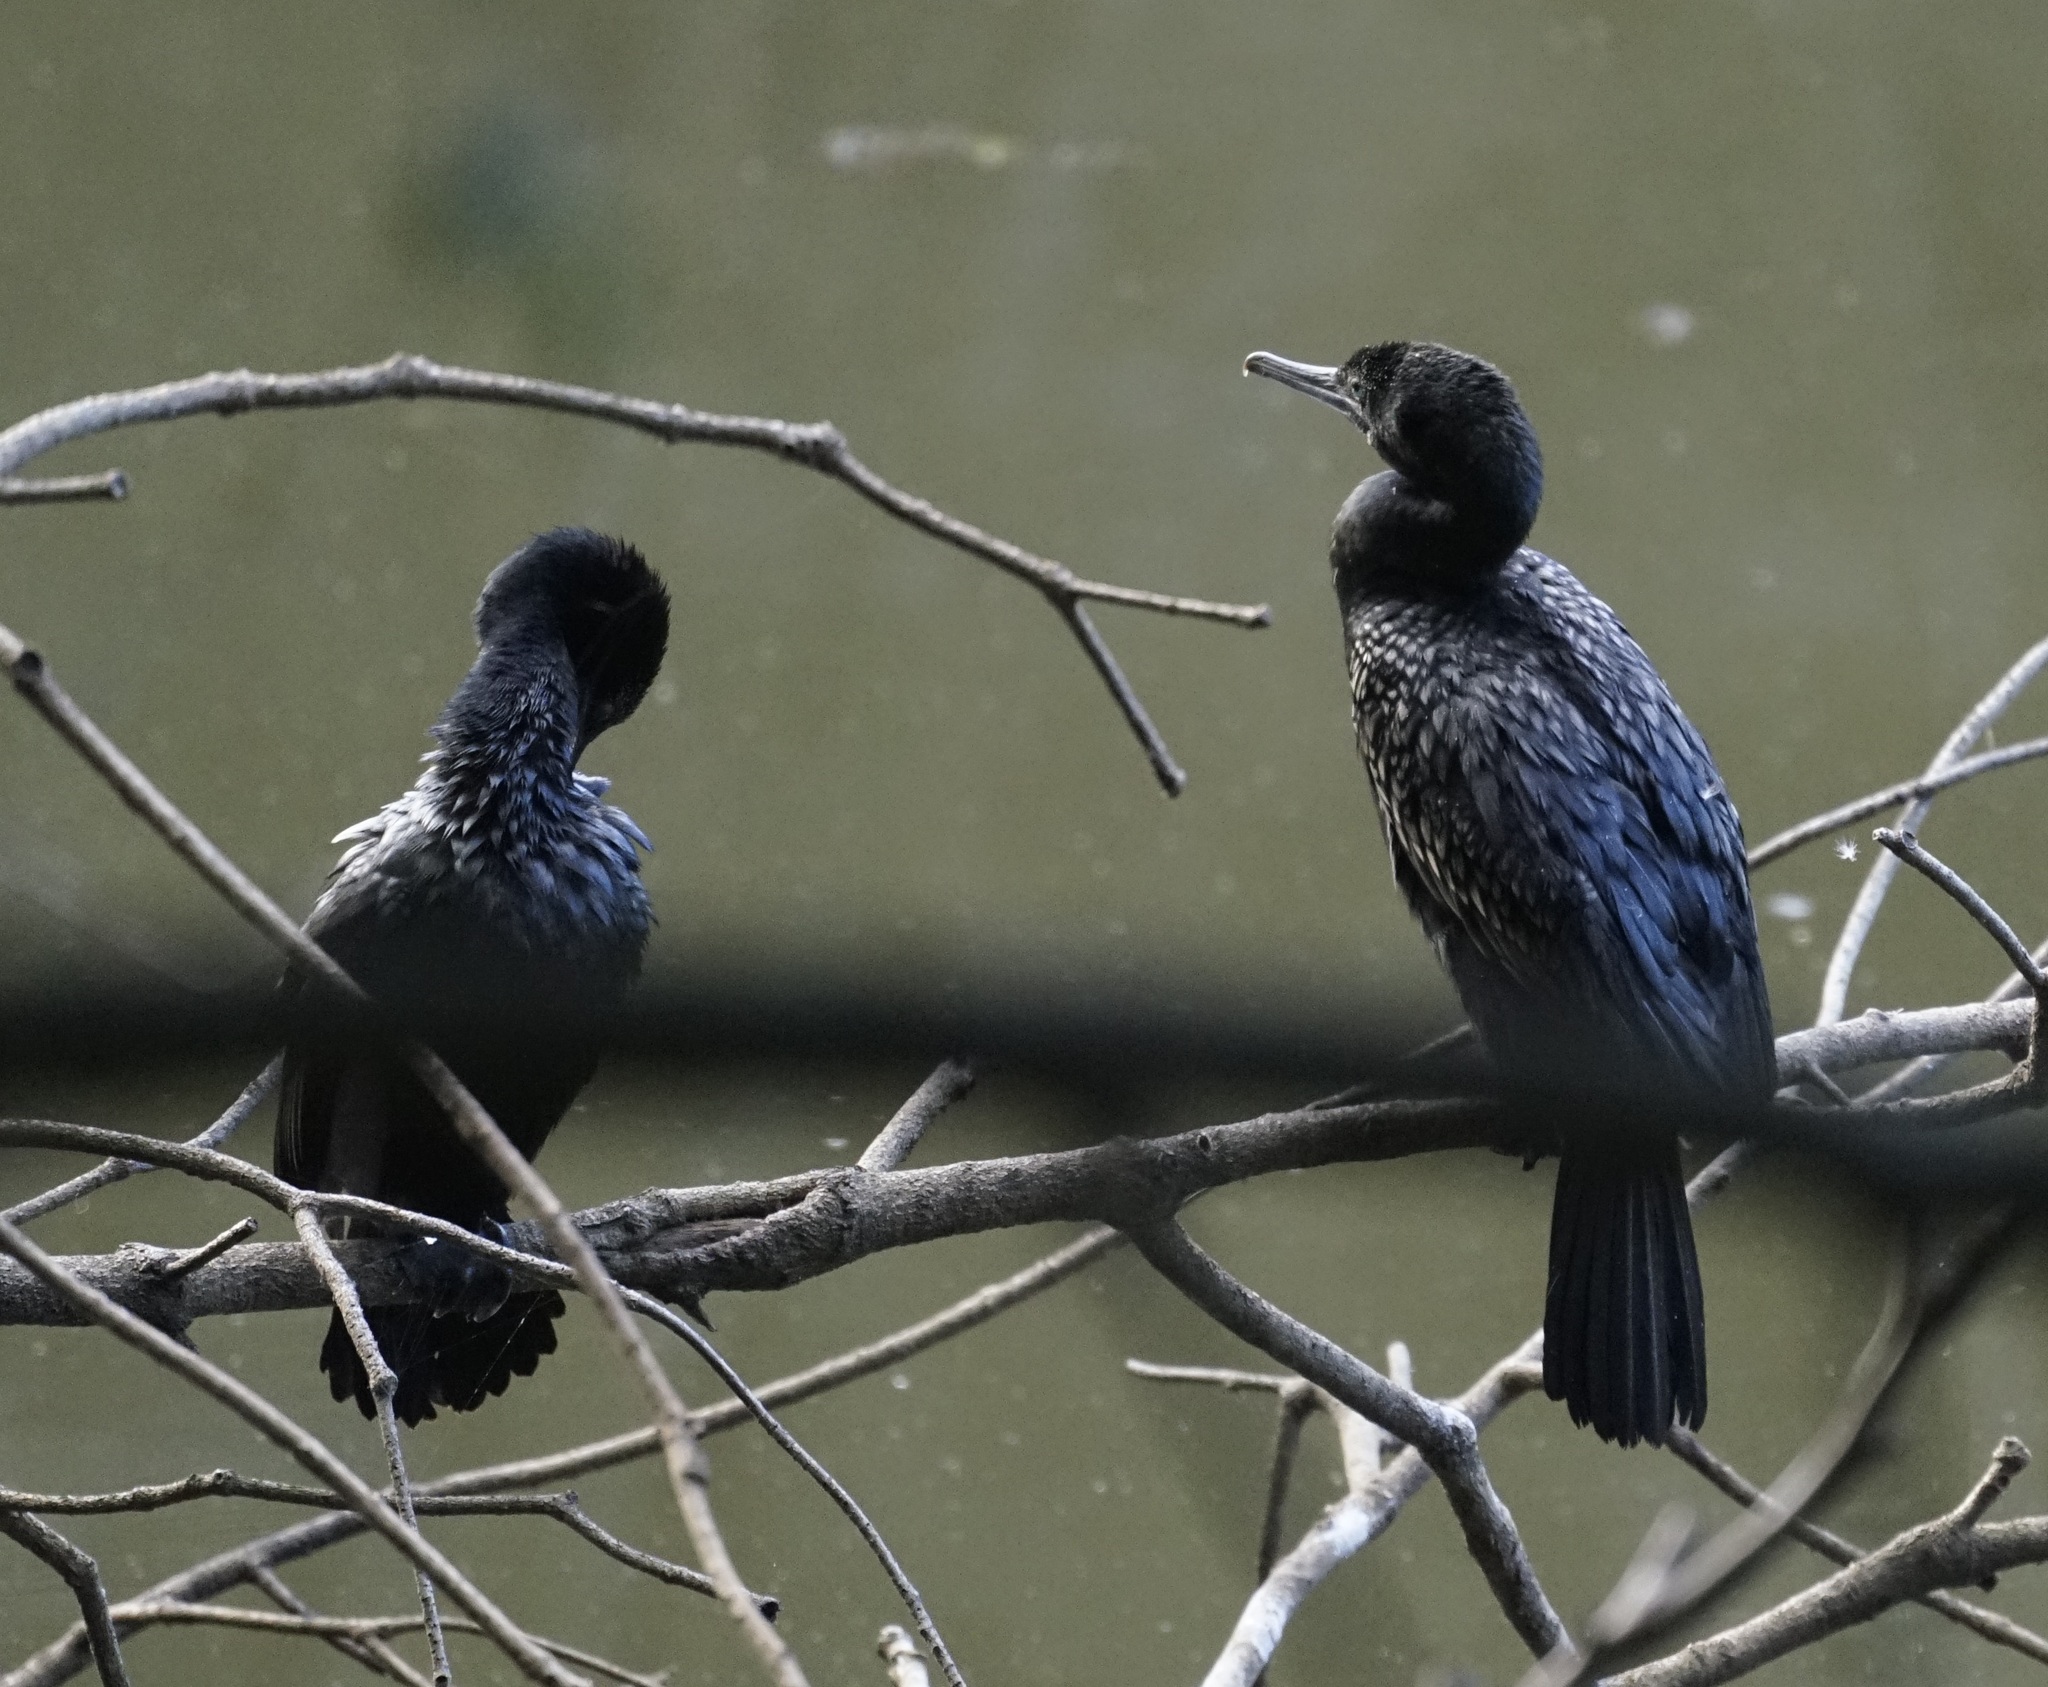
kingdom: Animalia
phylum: Chordata
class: Aves
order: Suliformes
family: Phalacrocoracidae
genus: Phalacrocorax
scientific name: Phalacrocorax sulcirostris
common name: Little black cormorant
